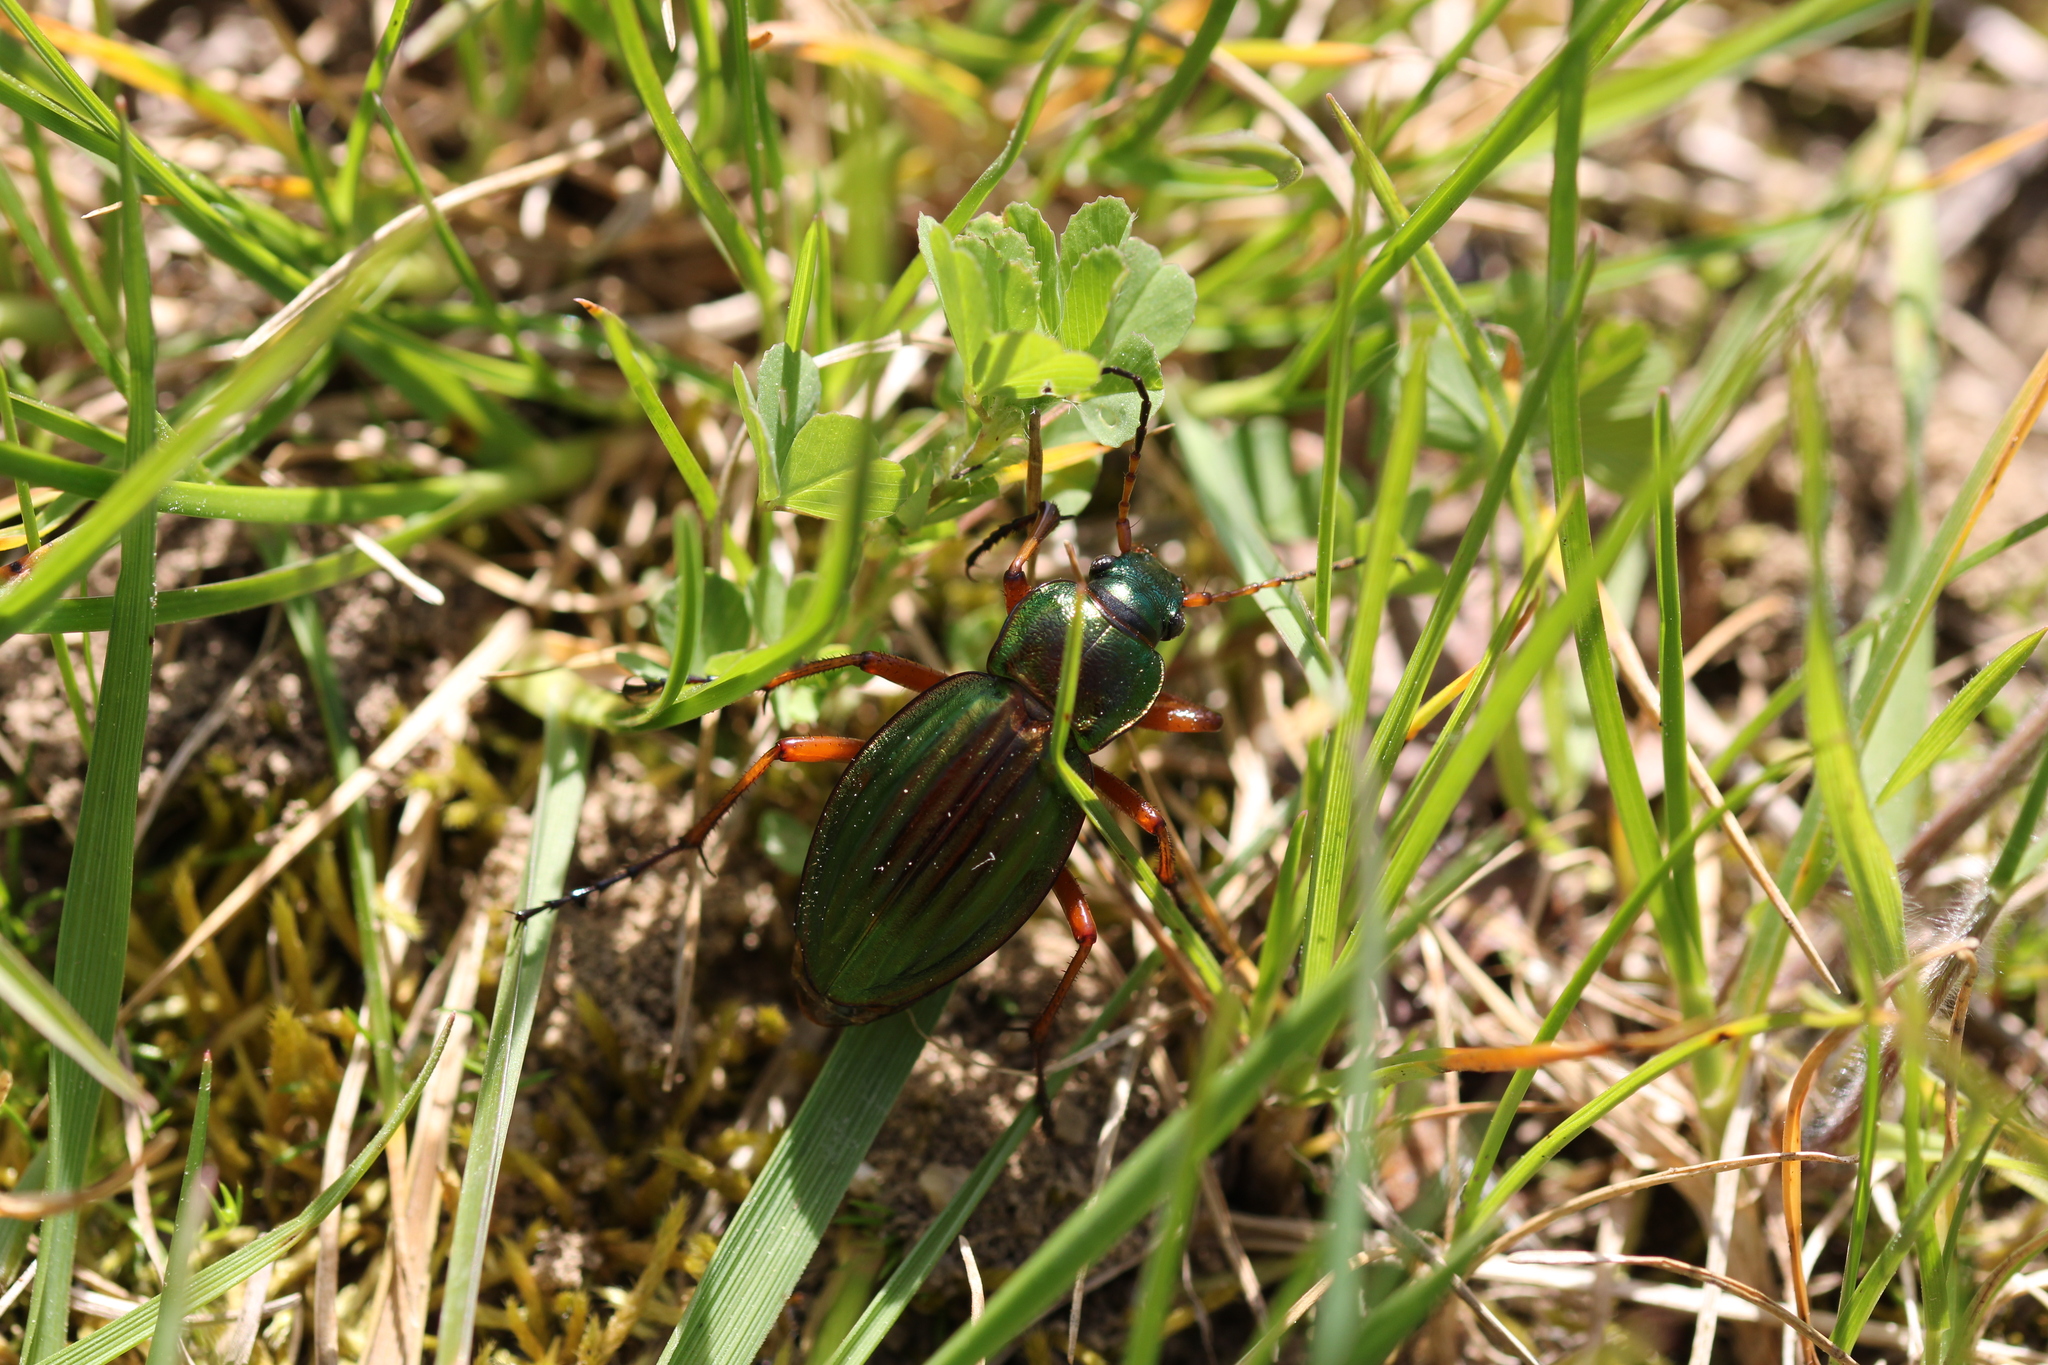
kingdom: Animalia
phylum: Arthropoda
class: Insecta
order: Coleoptera
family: Carabidae
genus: Carabus
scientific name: Carabus auratus
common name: Golden ground beetle
